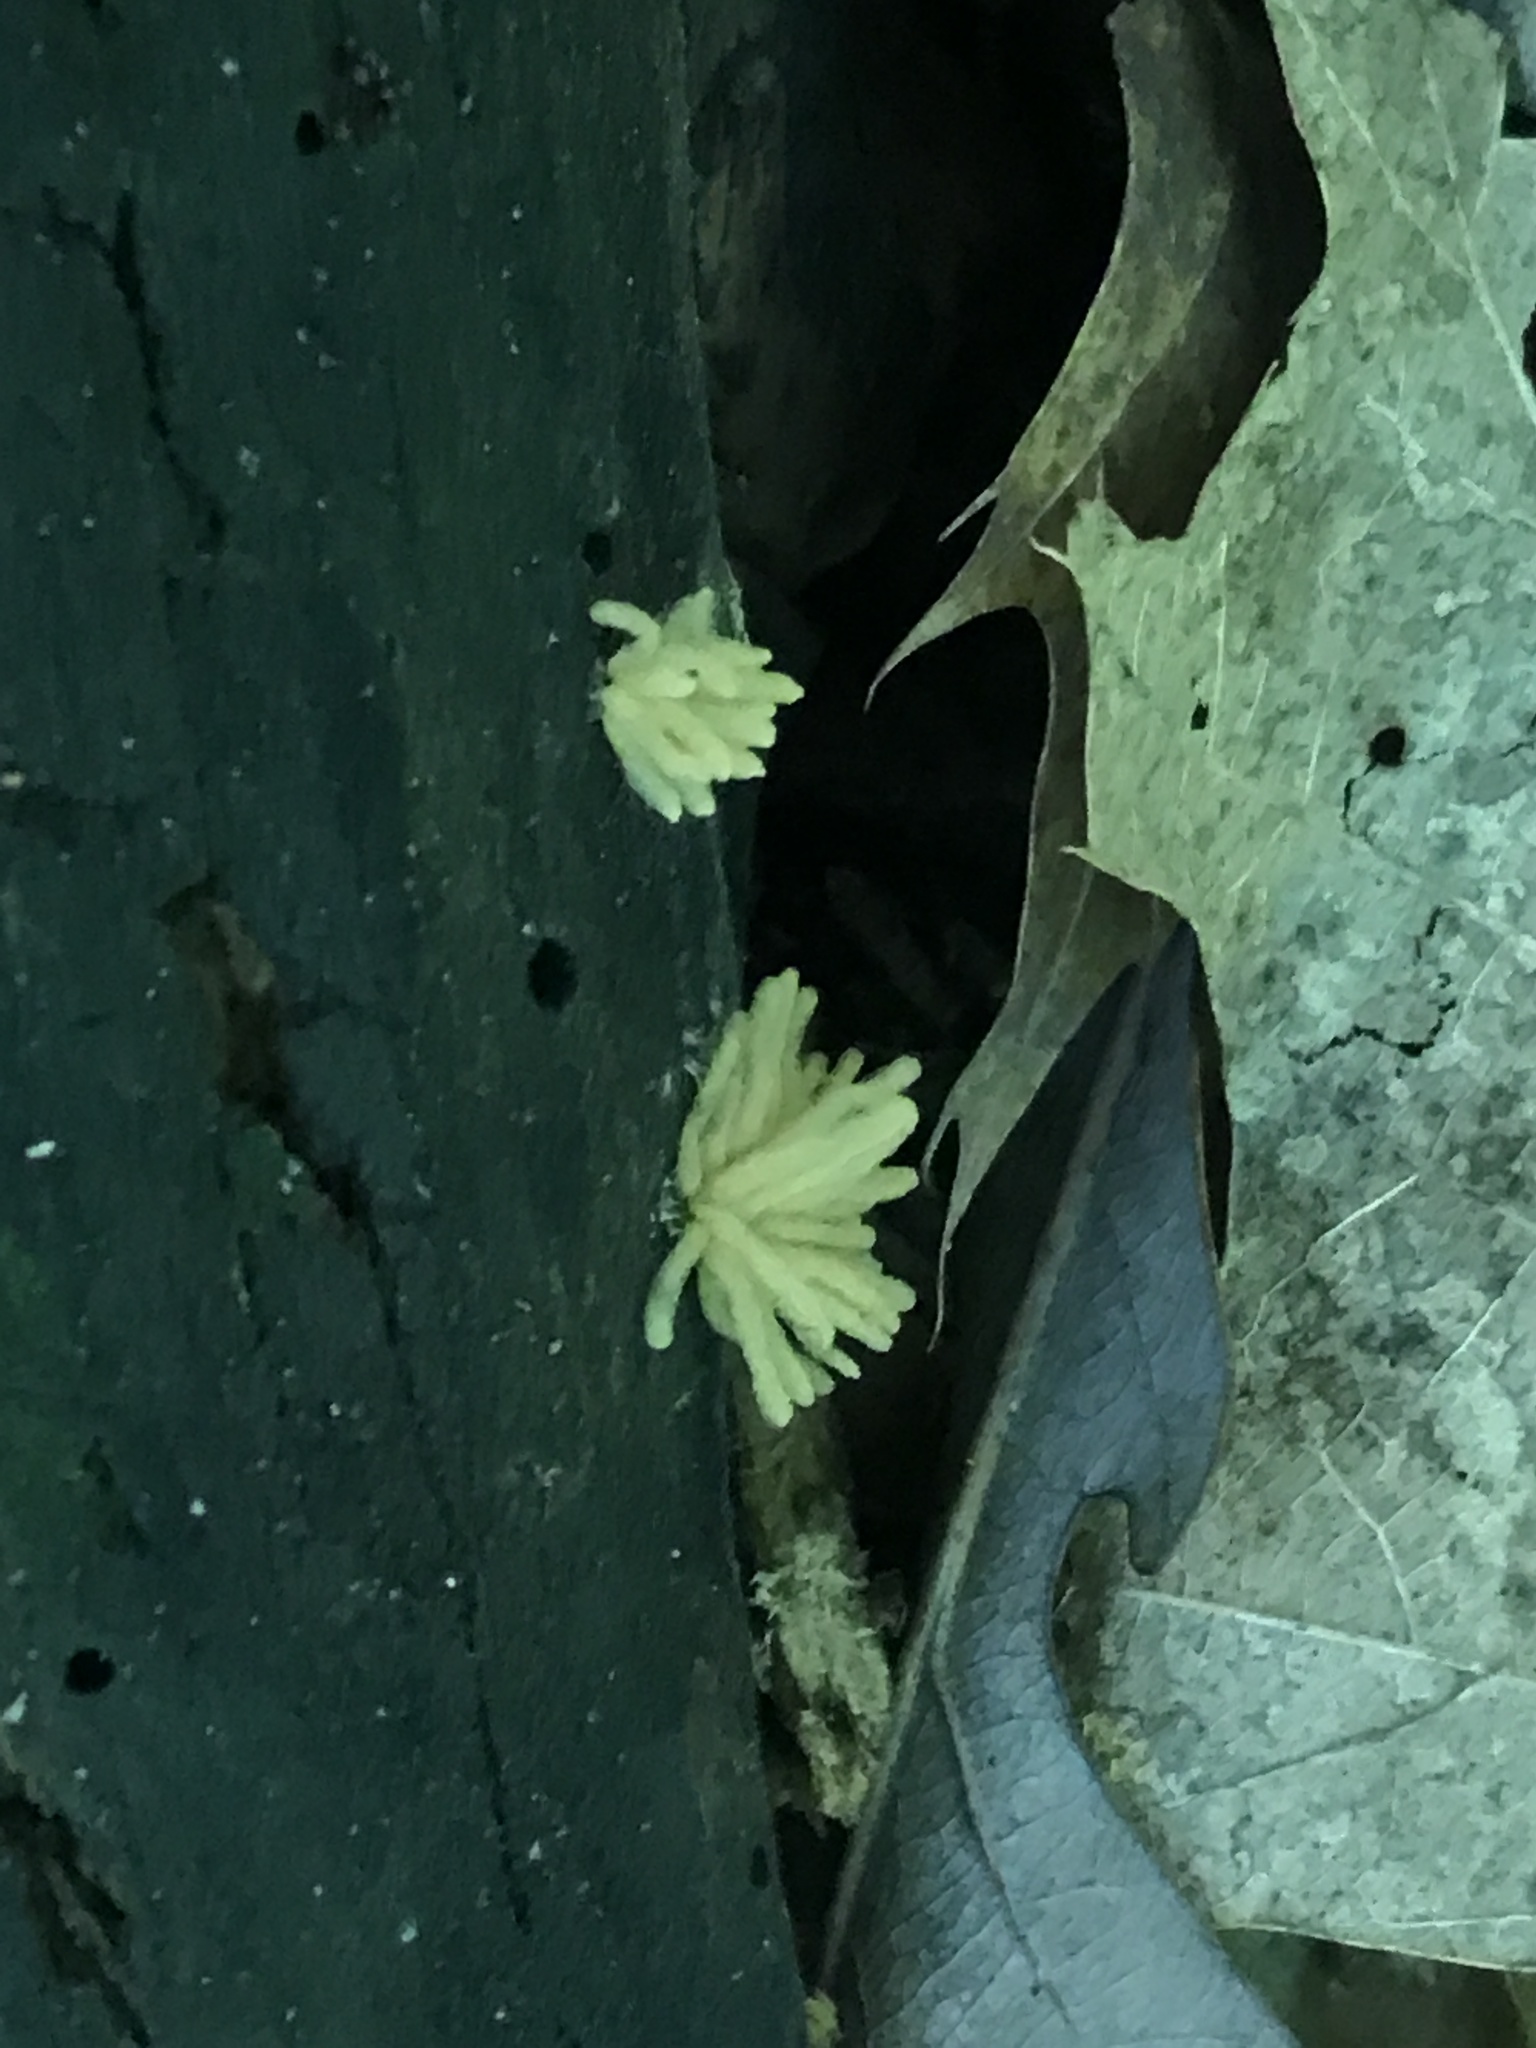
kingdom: Protozoa
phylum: Mycetozoa
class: Myxomycetes
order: Trichiales
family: Arcyriaceae
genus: Arcyria
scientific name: Arcyria obvelata
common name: Yellow carnival candy slime
